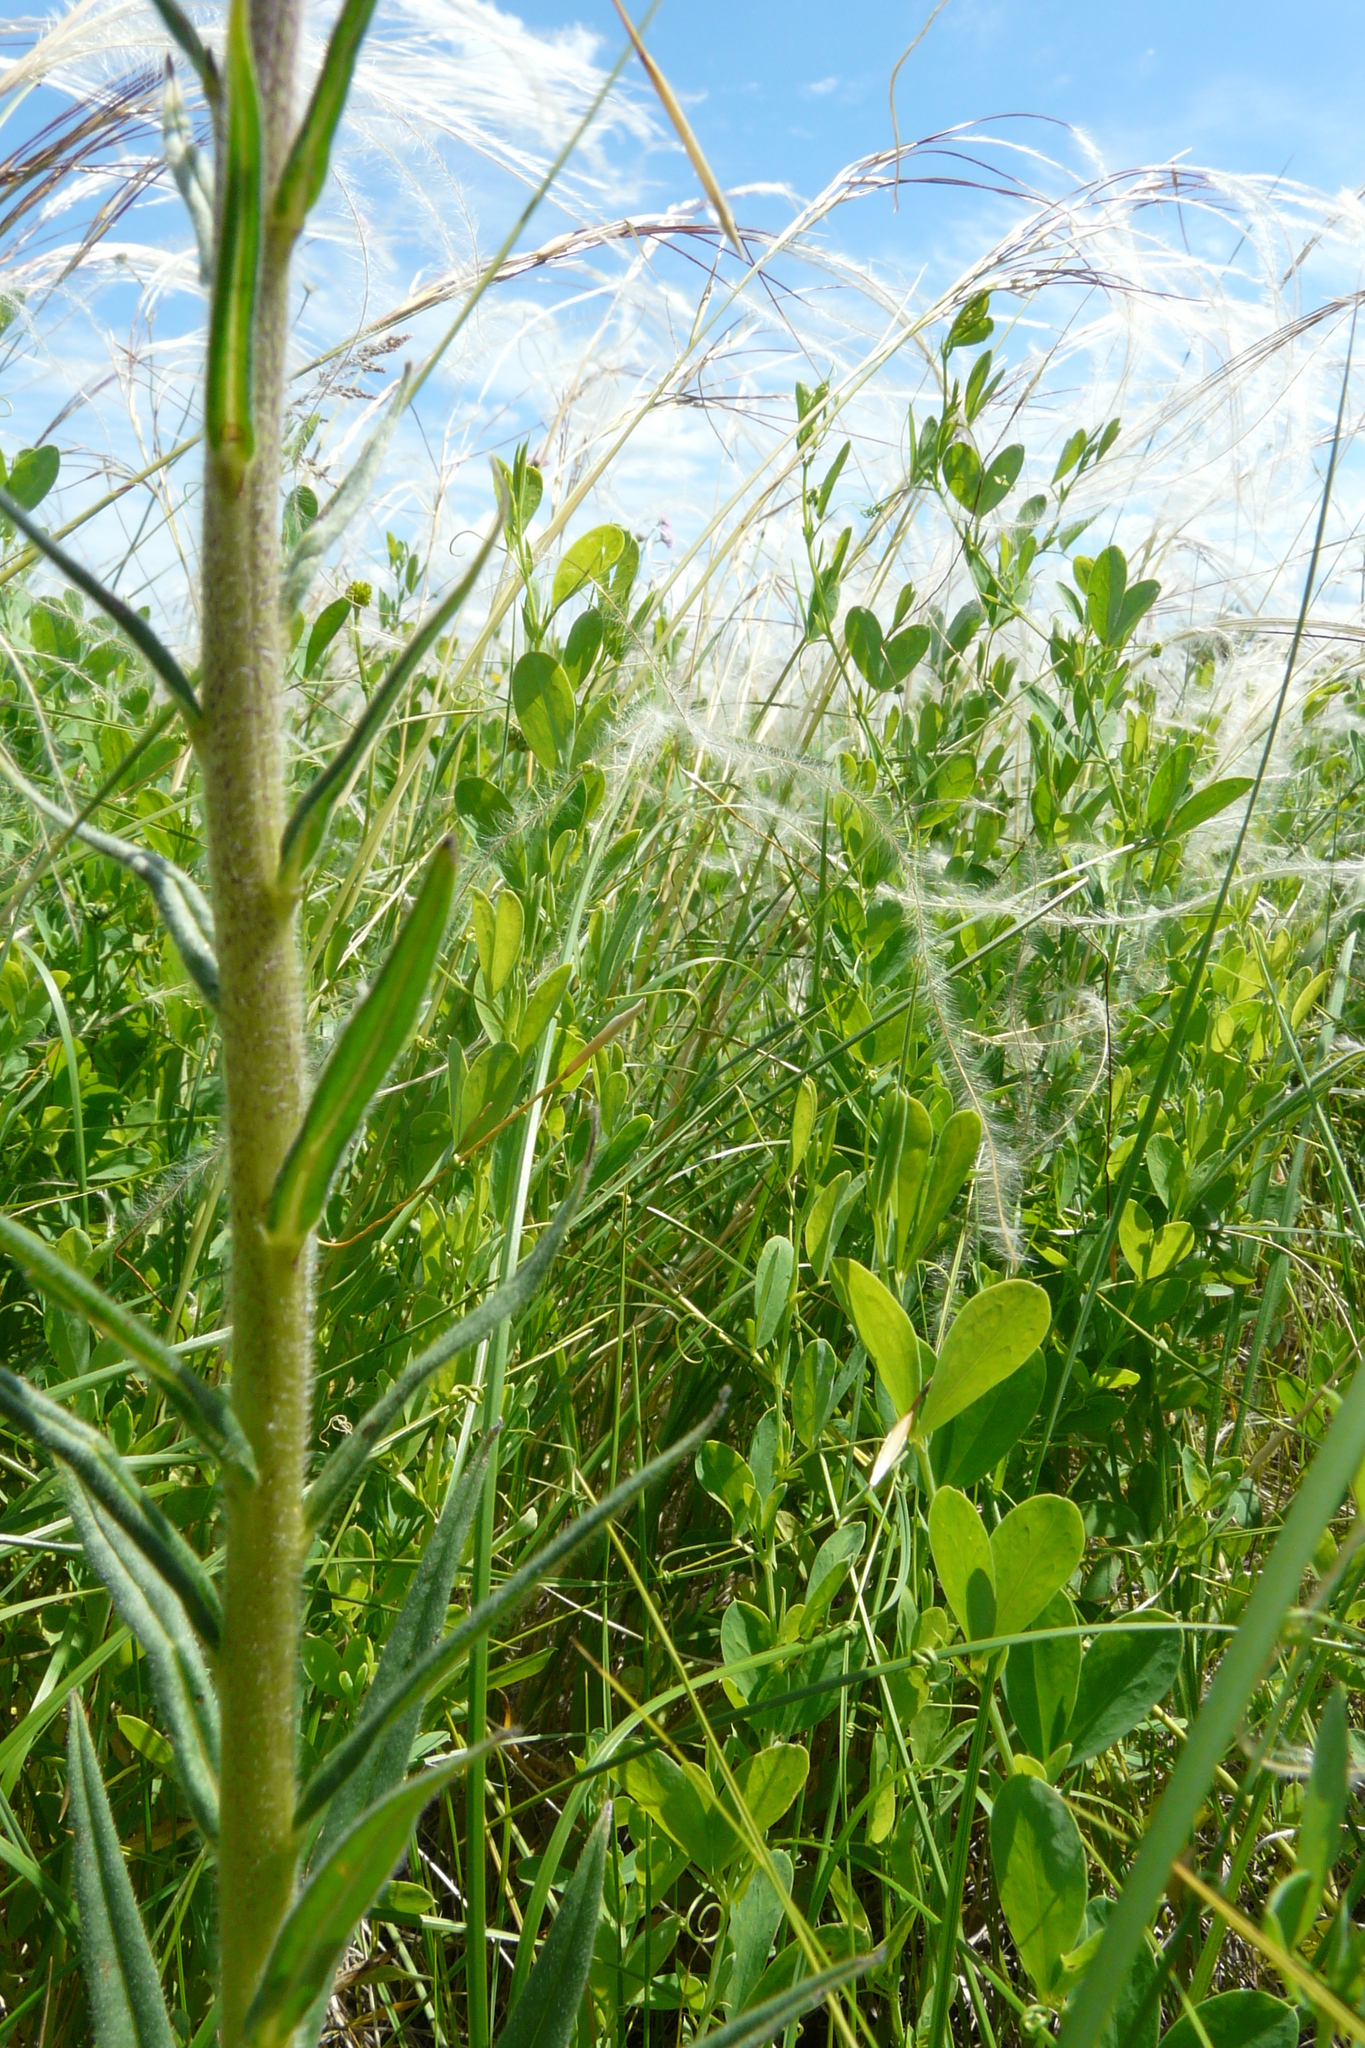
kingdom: Plantae
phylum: Tracheophyta
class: Magnoliopsida
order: Boraginales
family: Boraginaceae
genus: Pontechium
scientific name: Pontechium maculatum
